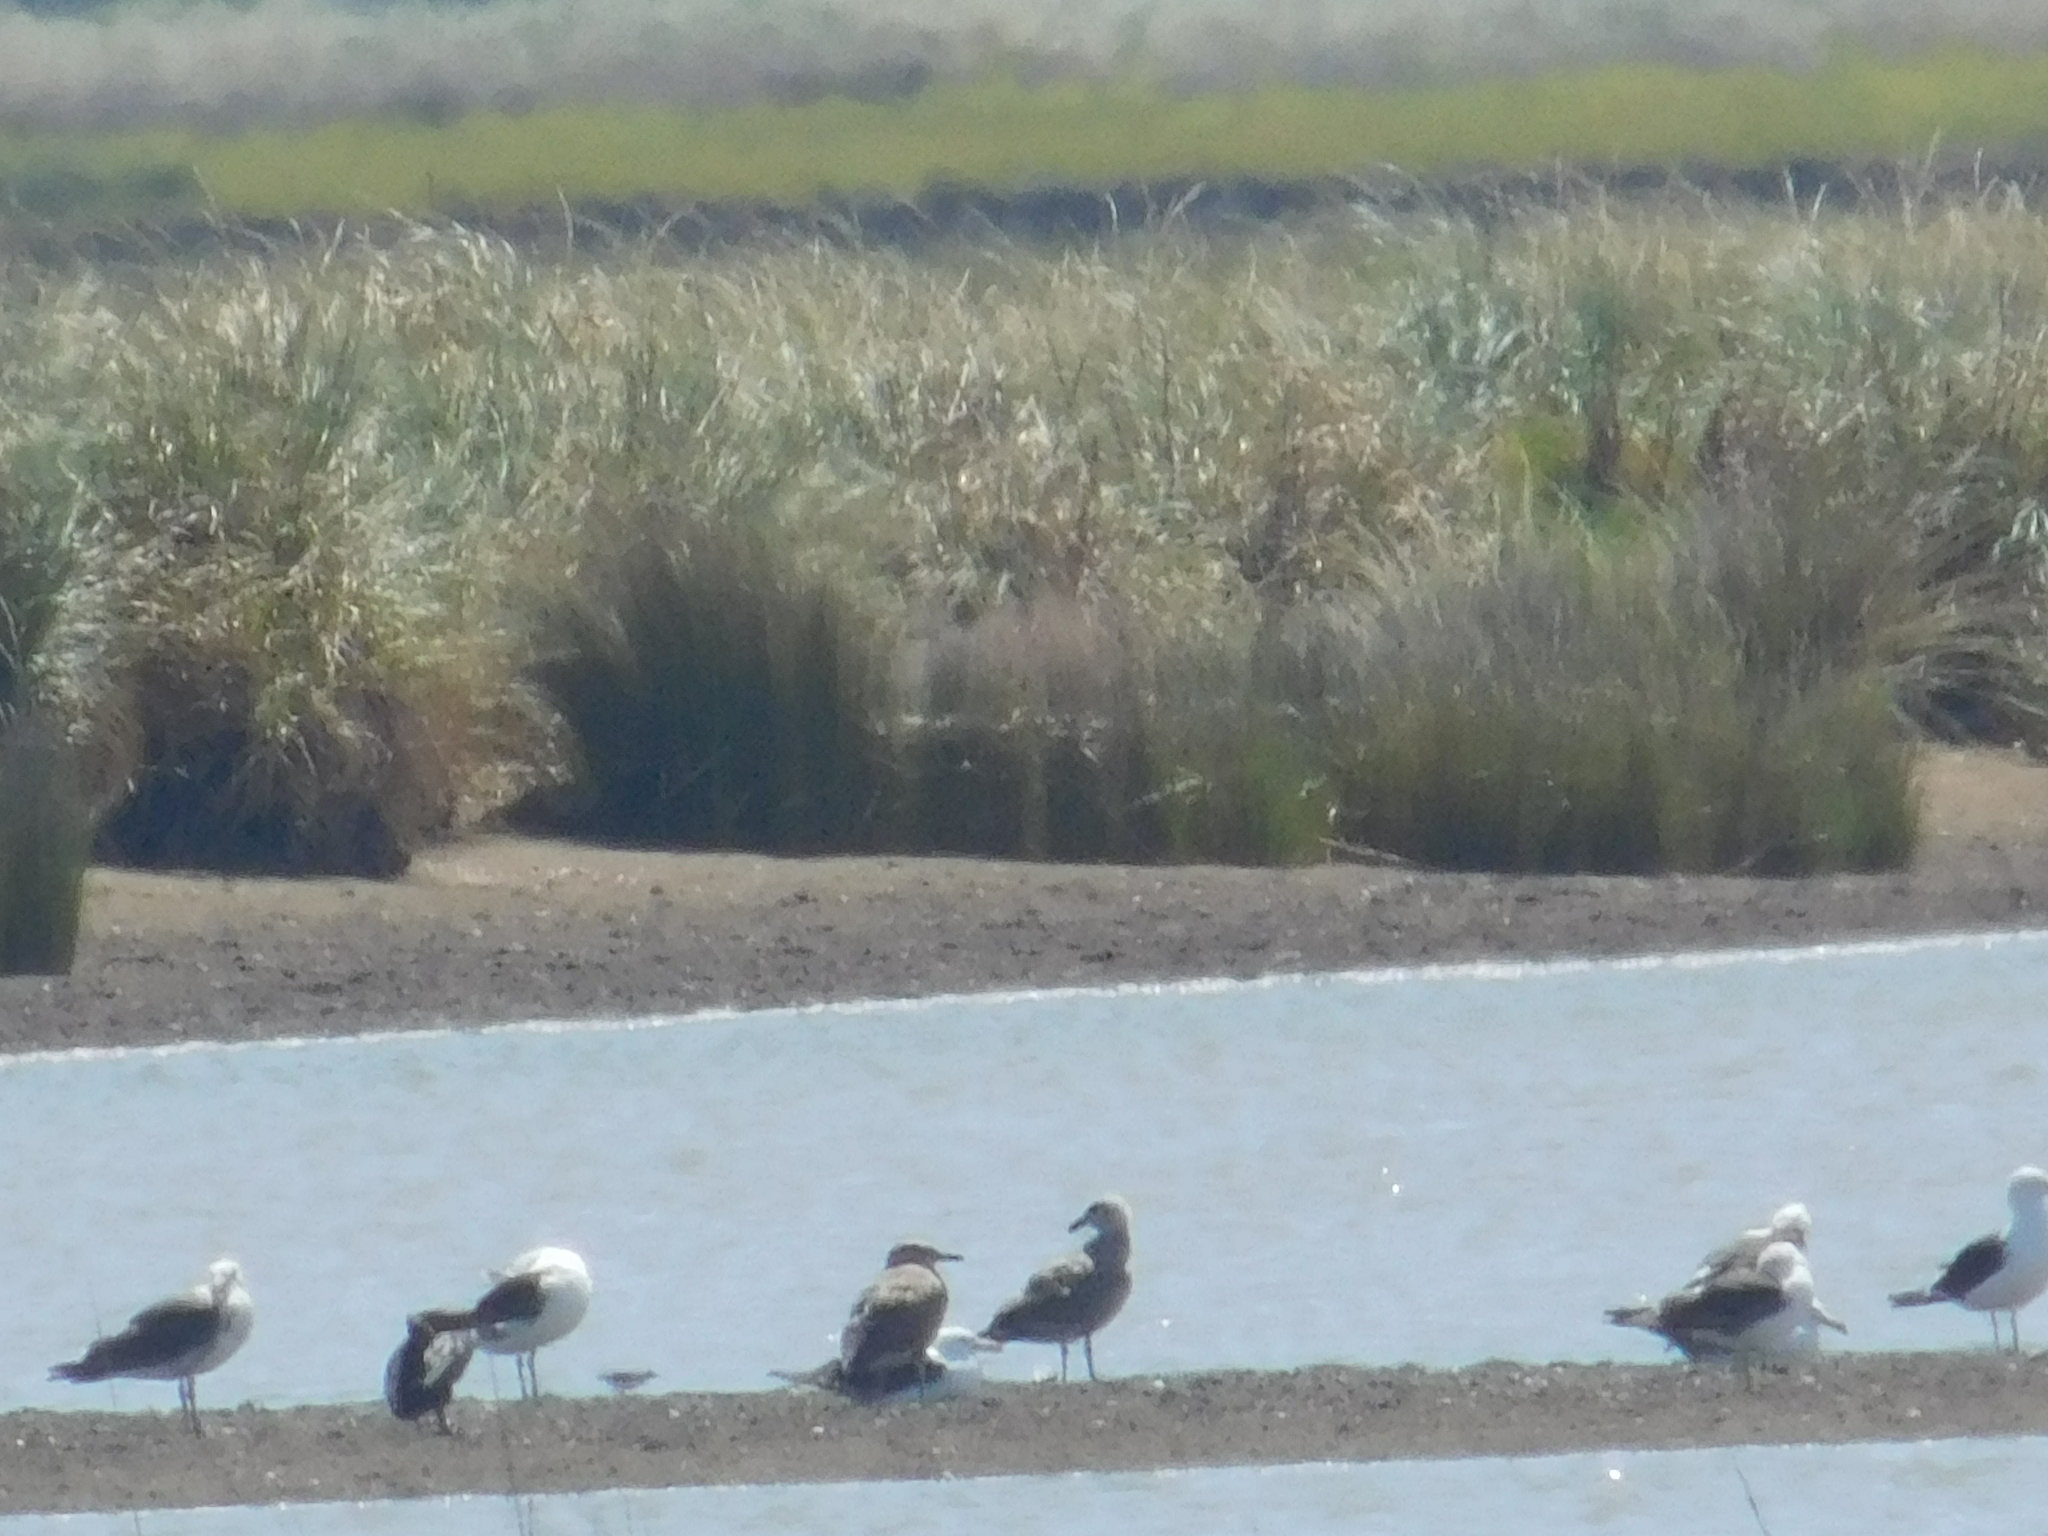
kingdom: Animalia
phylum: Chordata
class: Aves
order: Charadriiformes
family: Laridae
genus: Larus
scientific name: Larus dominicanus
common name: Kelp gull
